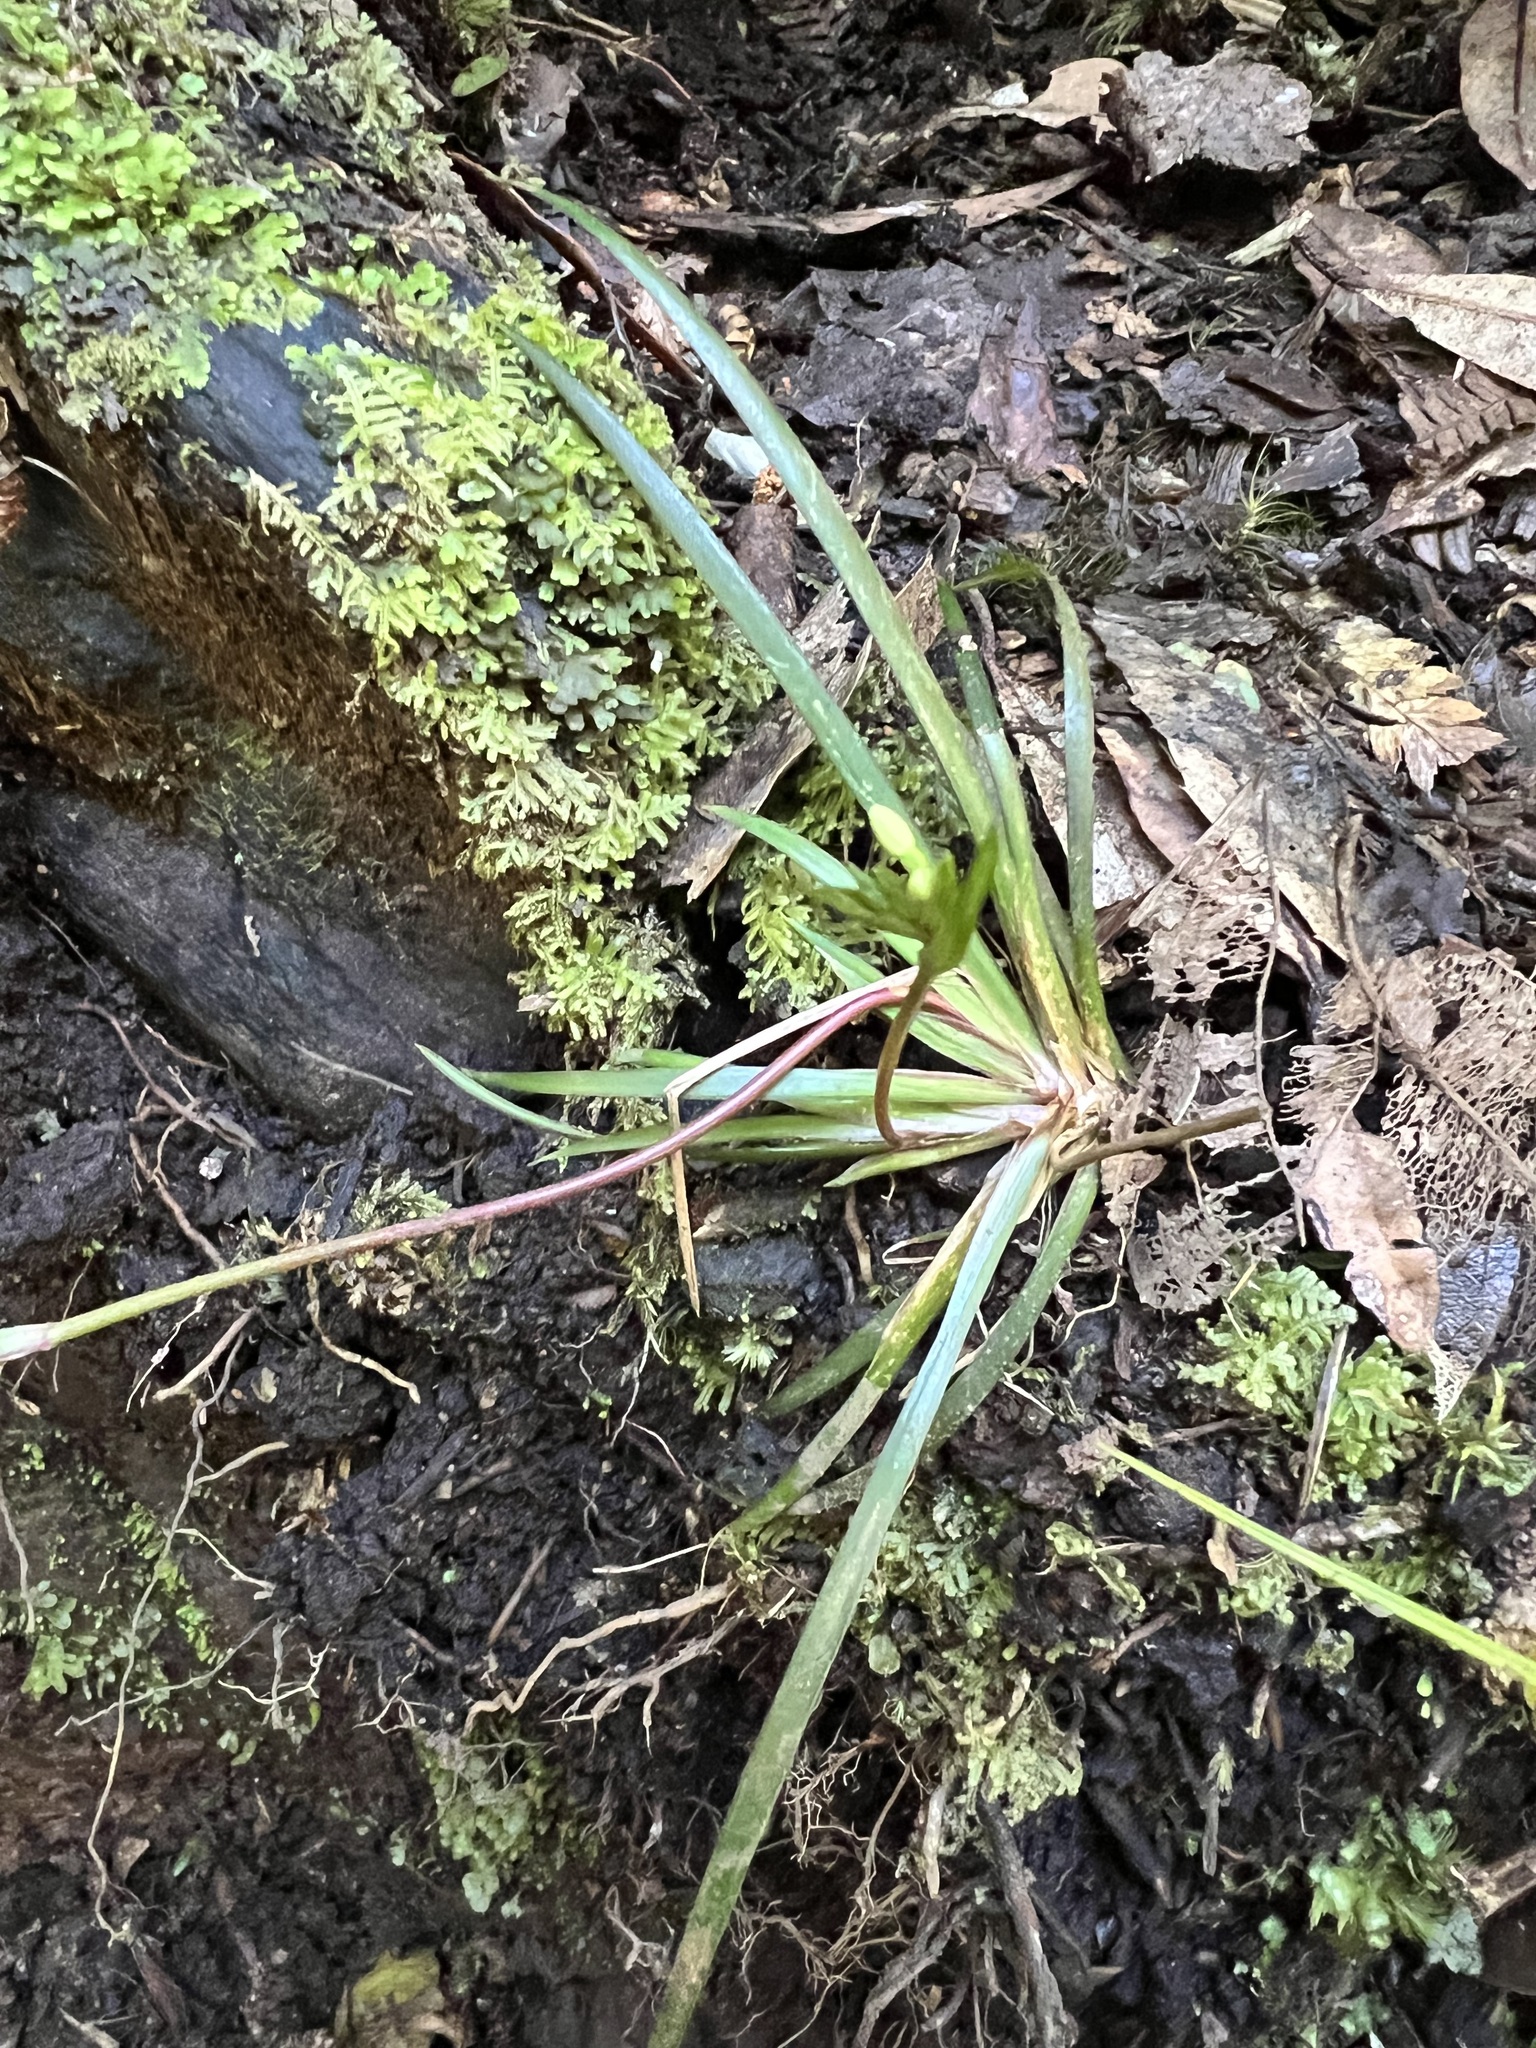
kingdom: Plantae
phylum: Tracheophyta
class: Liliopsida
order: Asparagales
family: Iridaceae
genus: Libertia
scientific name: Libertia micrantha
